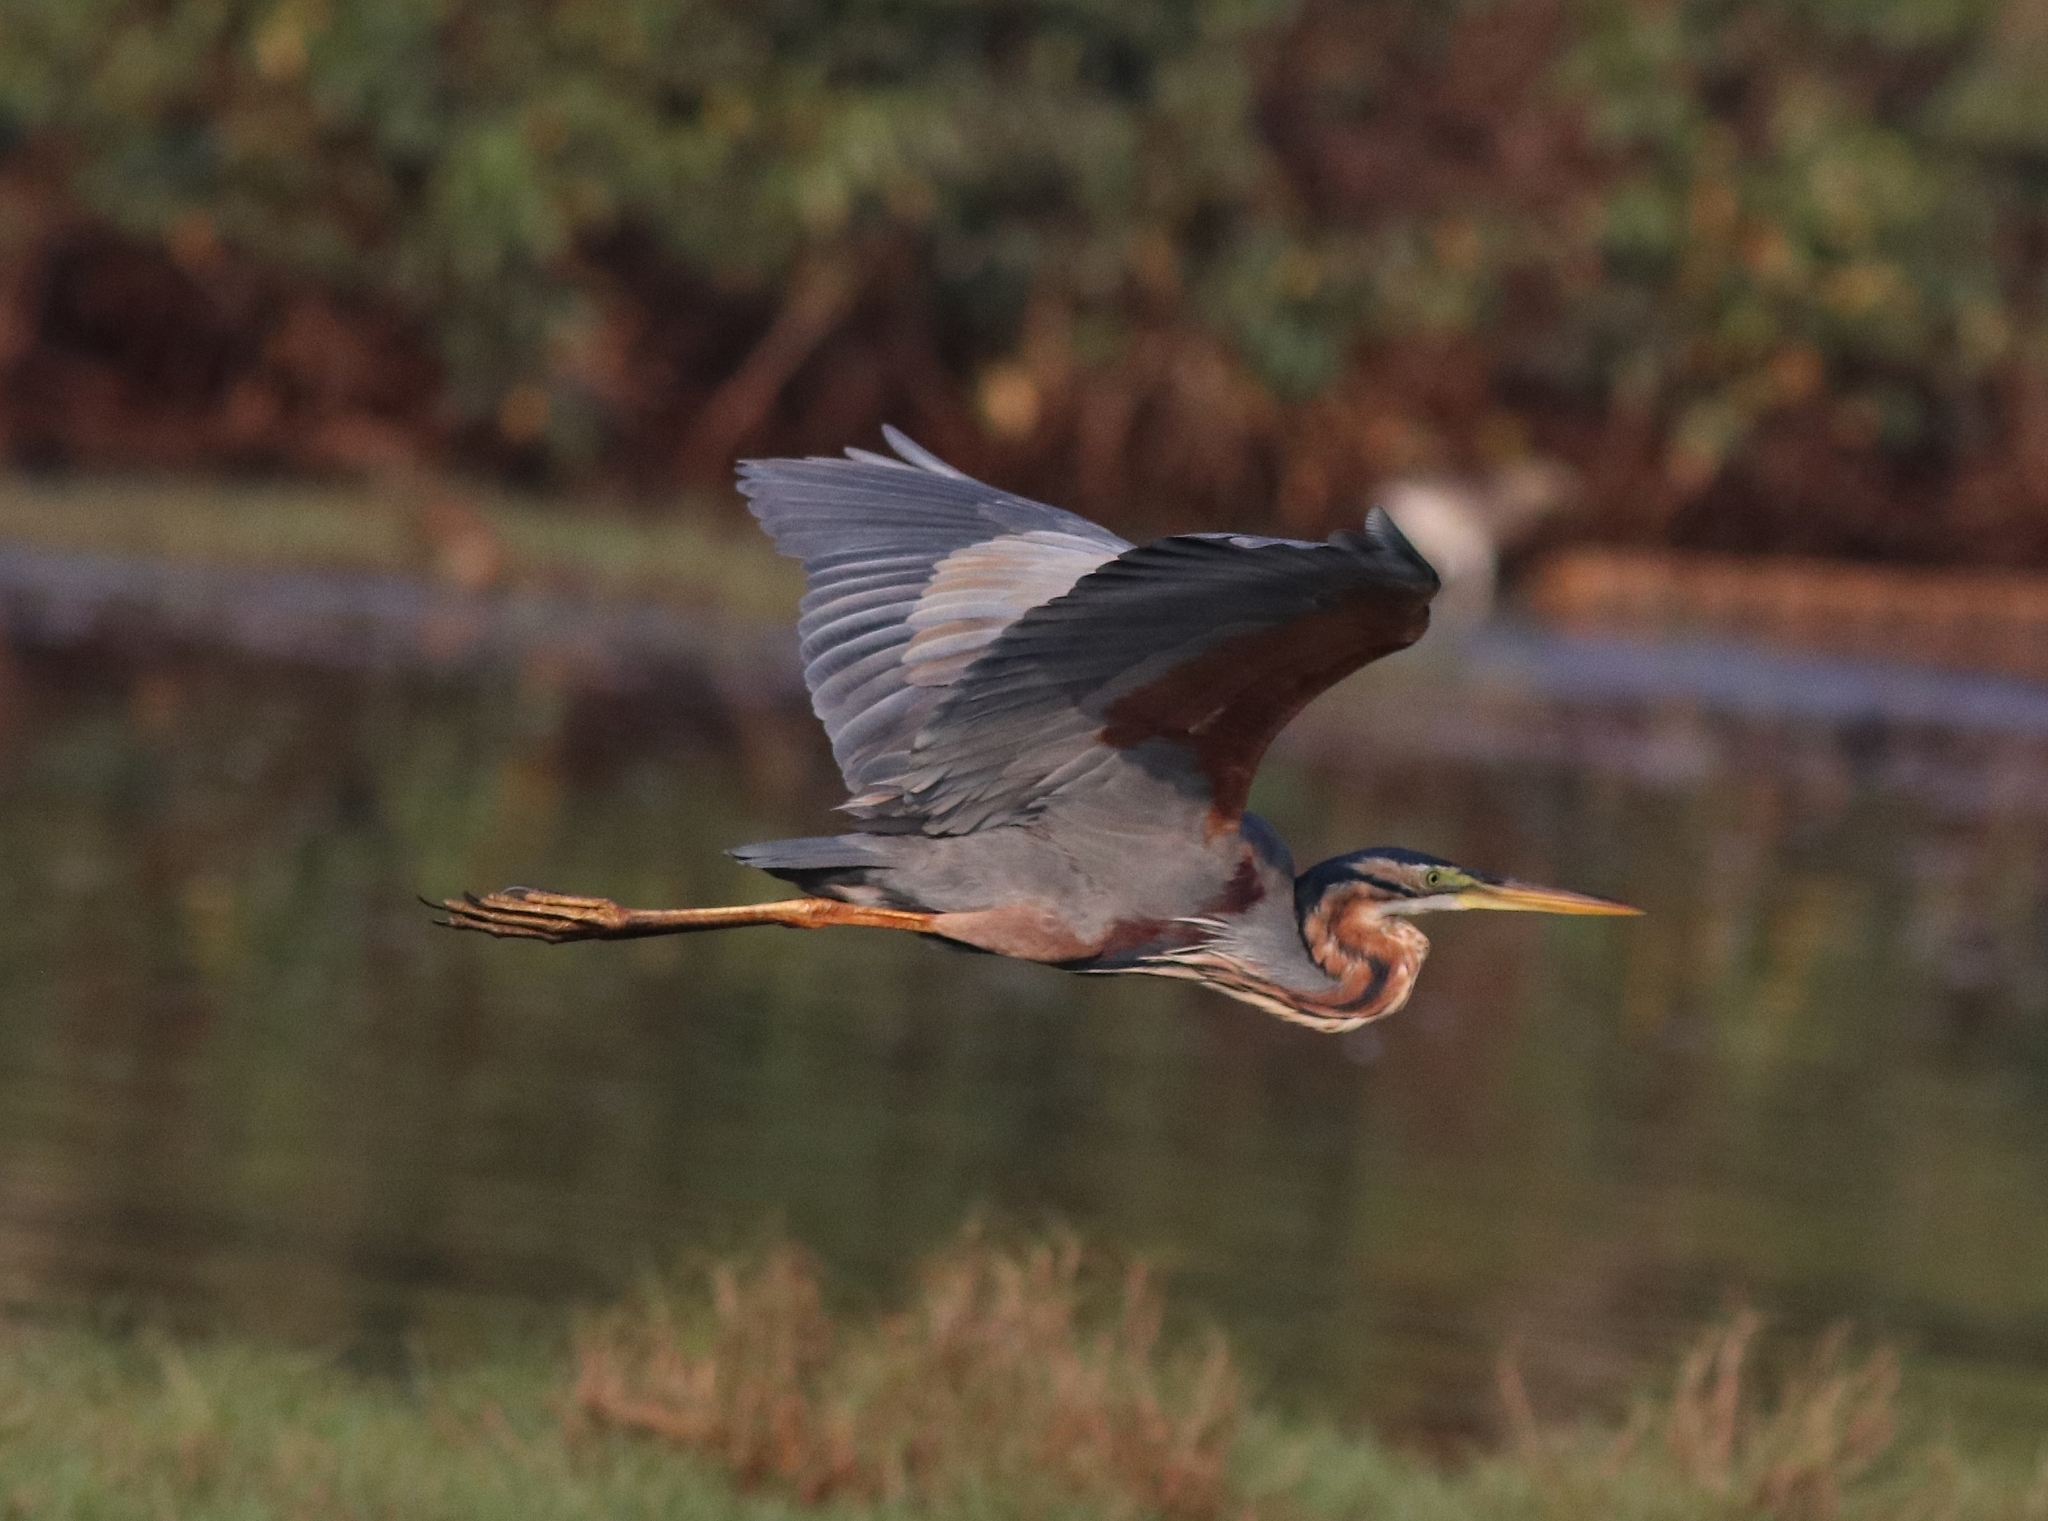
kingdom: Animalia
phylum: Chordata
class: Aves
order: Pelecaniformes
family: Ardeidae
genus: Ardea
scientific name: Ardea purpurea
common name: Purple heron
